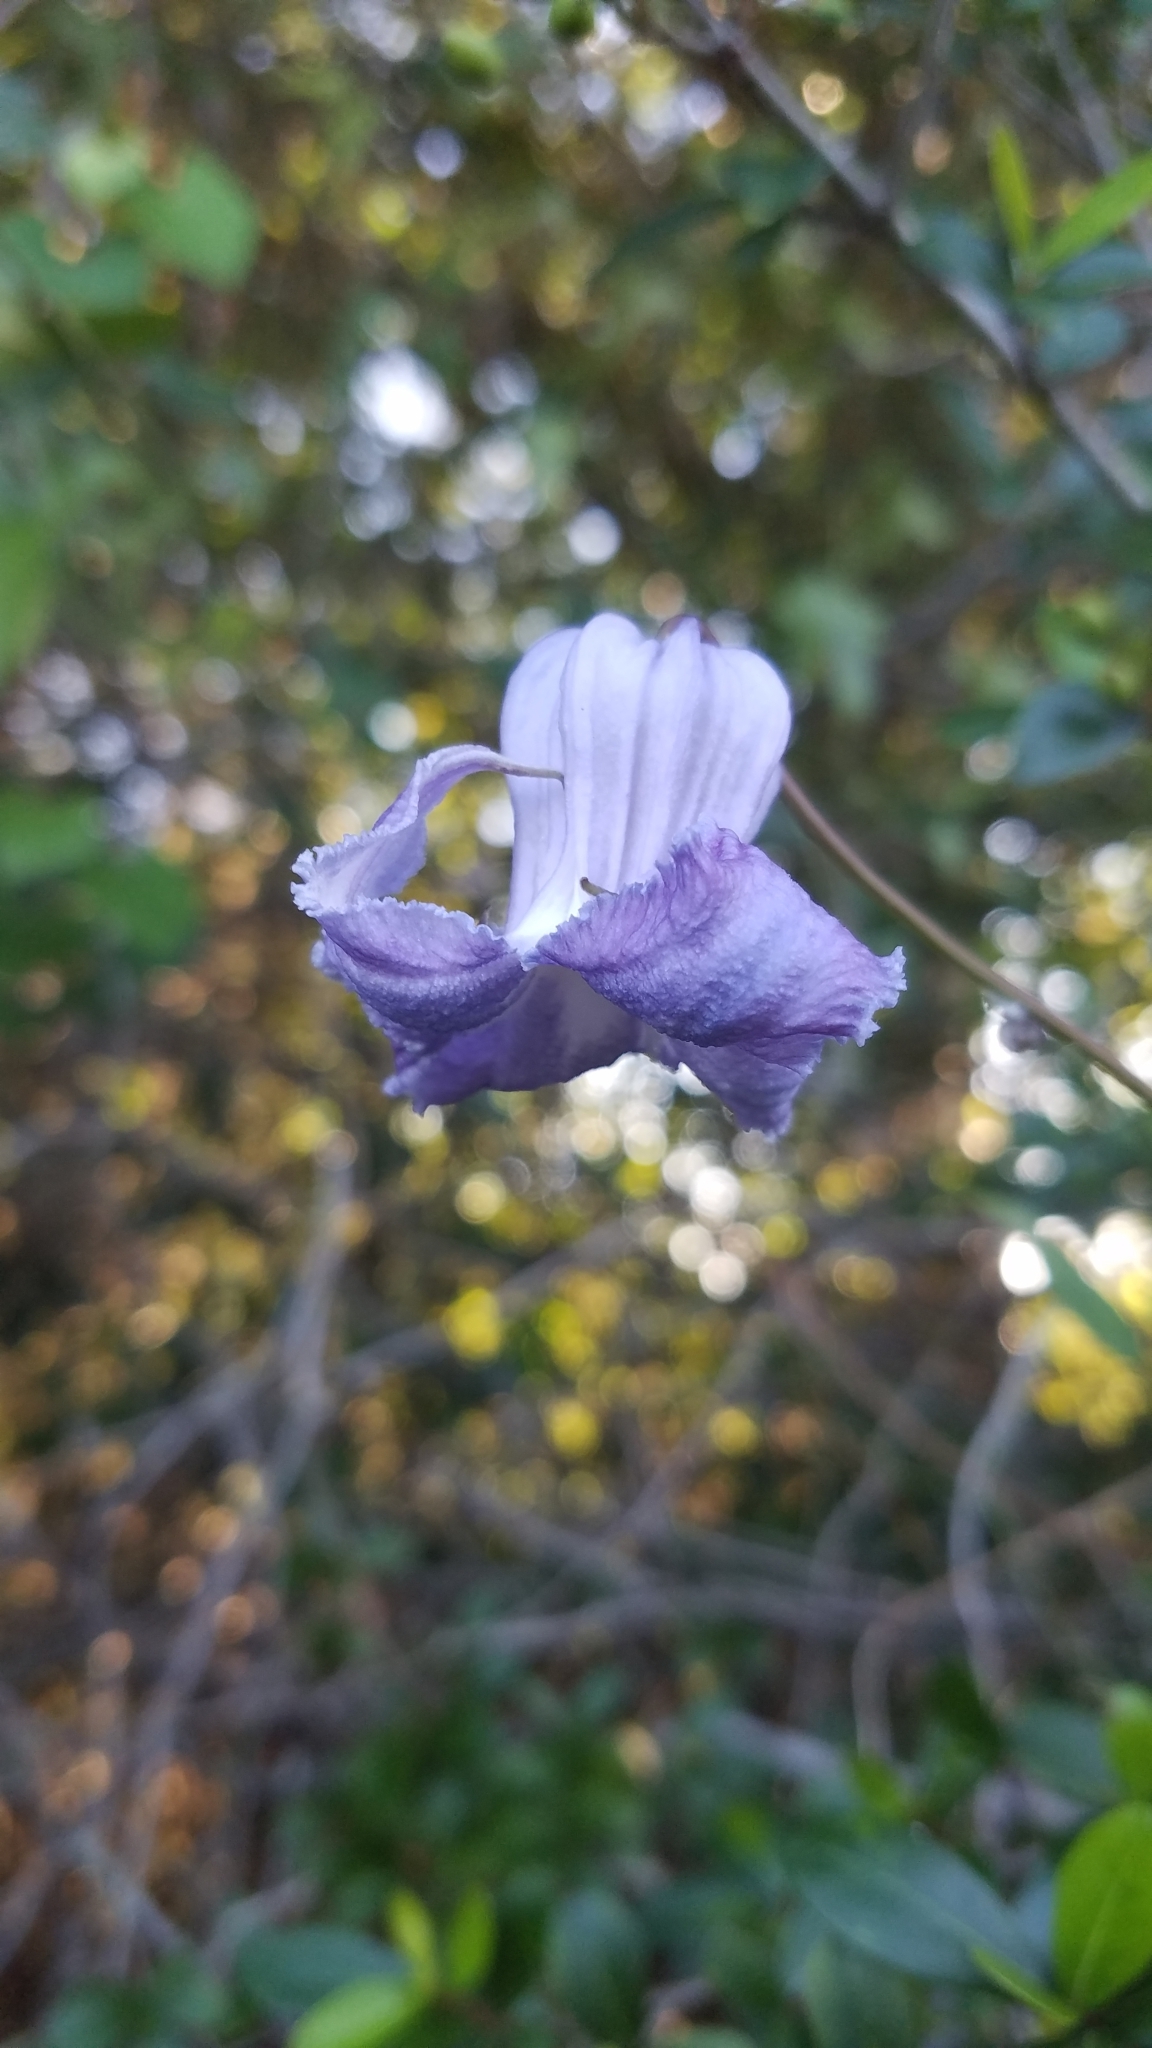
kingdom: Plantae
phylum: Tracheophyta
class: Magnoliopsida
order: Ranunculales
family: Ranunculaceae
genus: Clematis
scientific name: Clematis crispa
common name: Curly clematis
